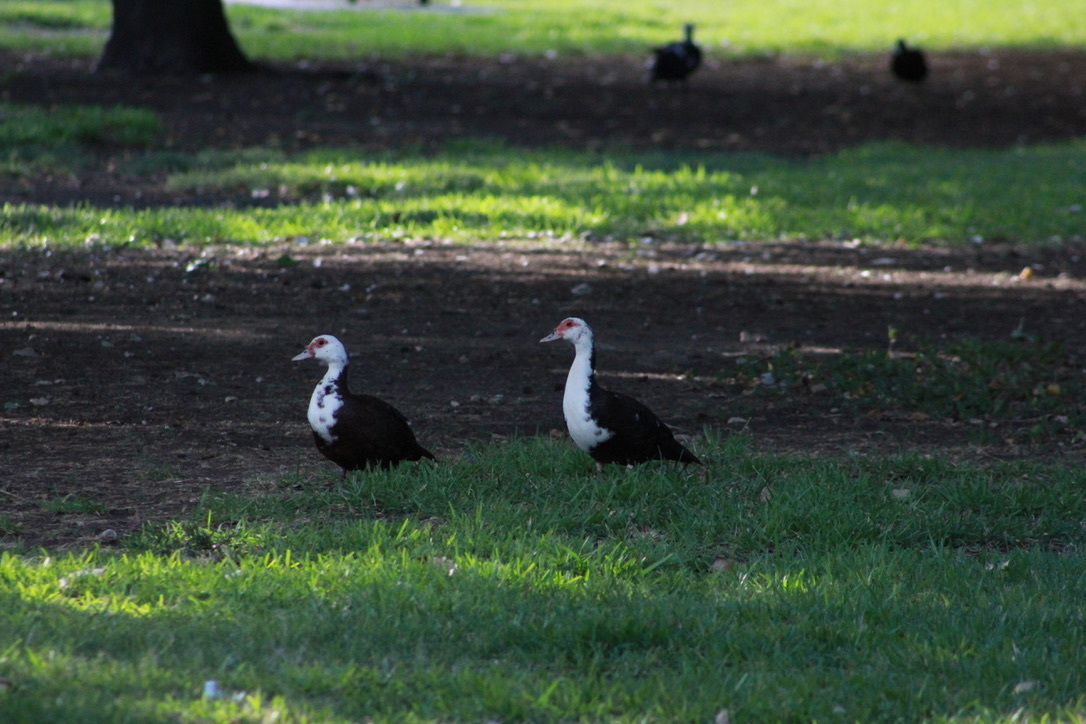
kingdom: Animalia
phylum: Chordata
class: Aves
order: Anseriformes
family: Anatidae
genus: Cairina
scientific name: Cairina moschata
